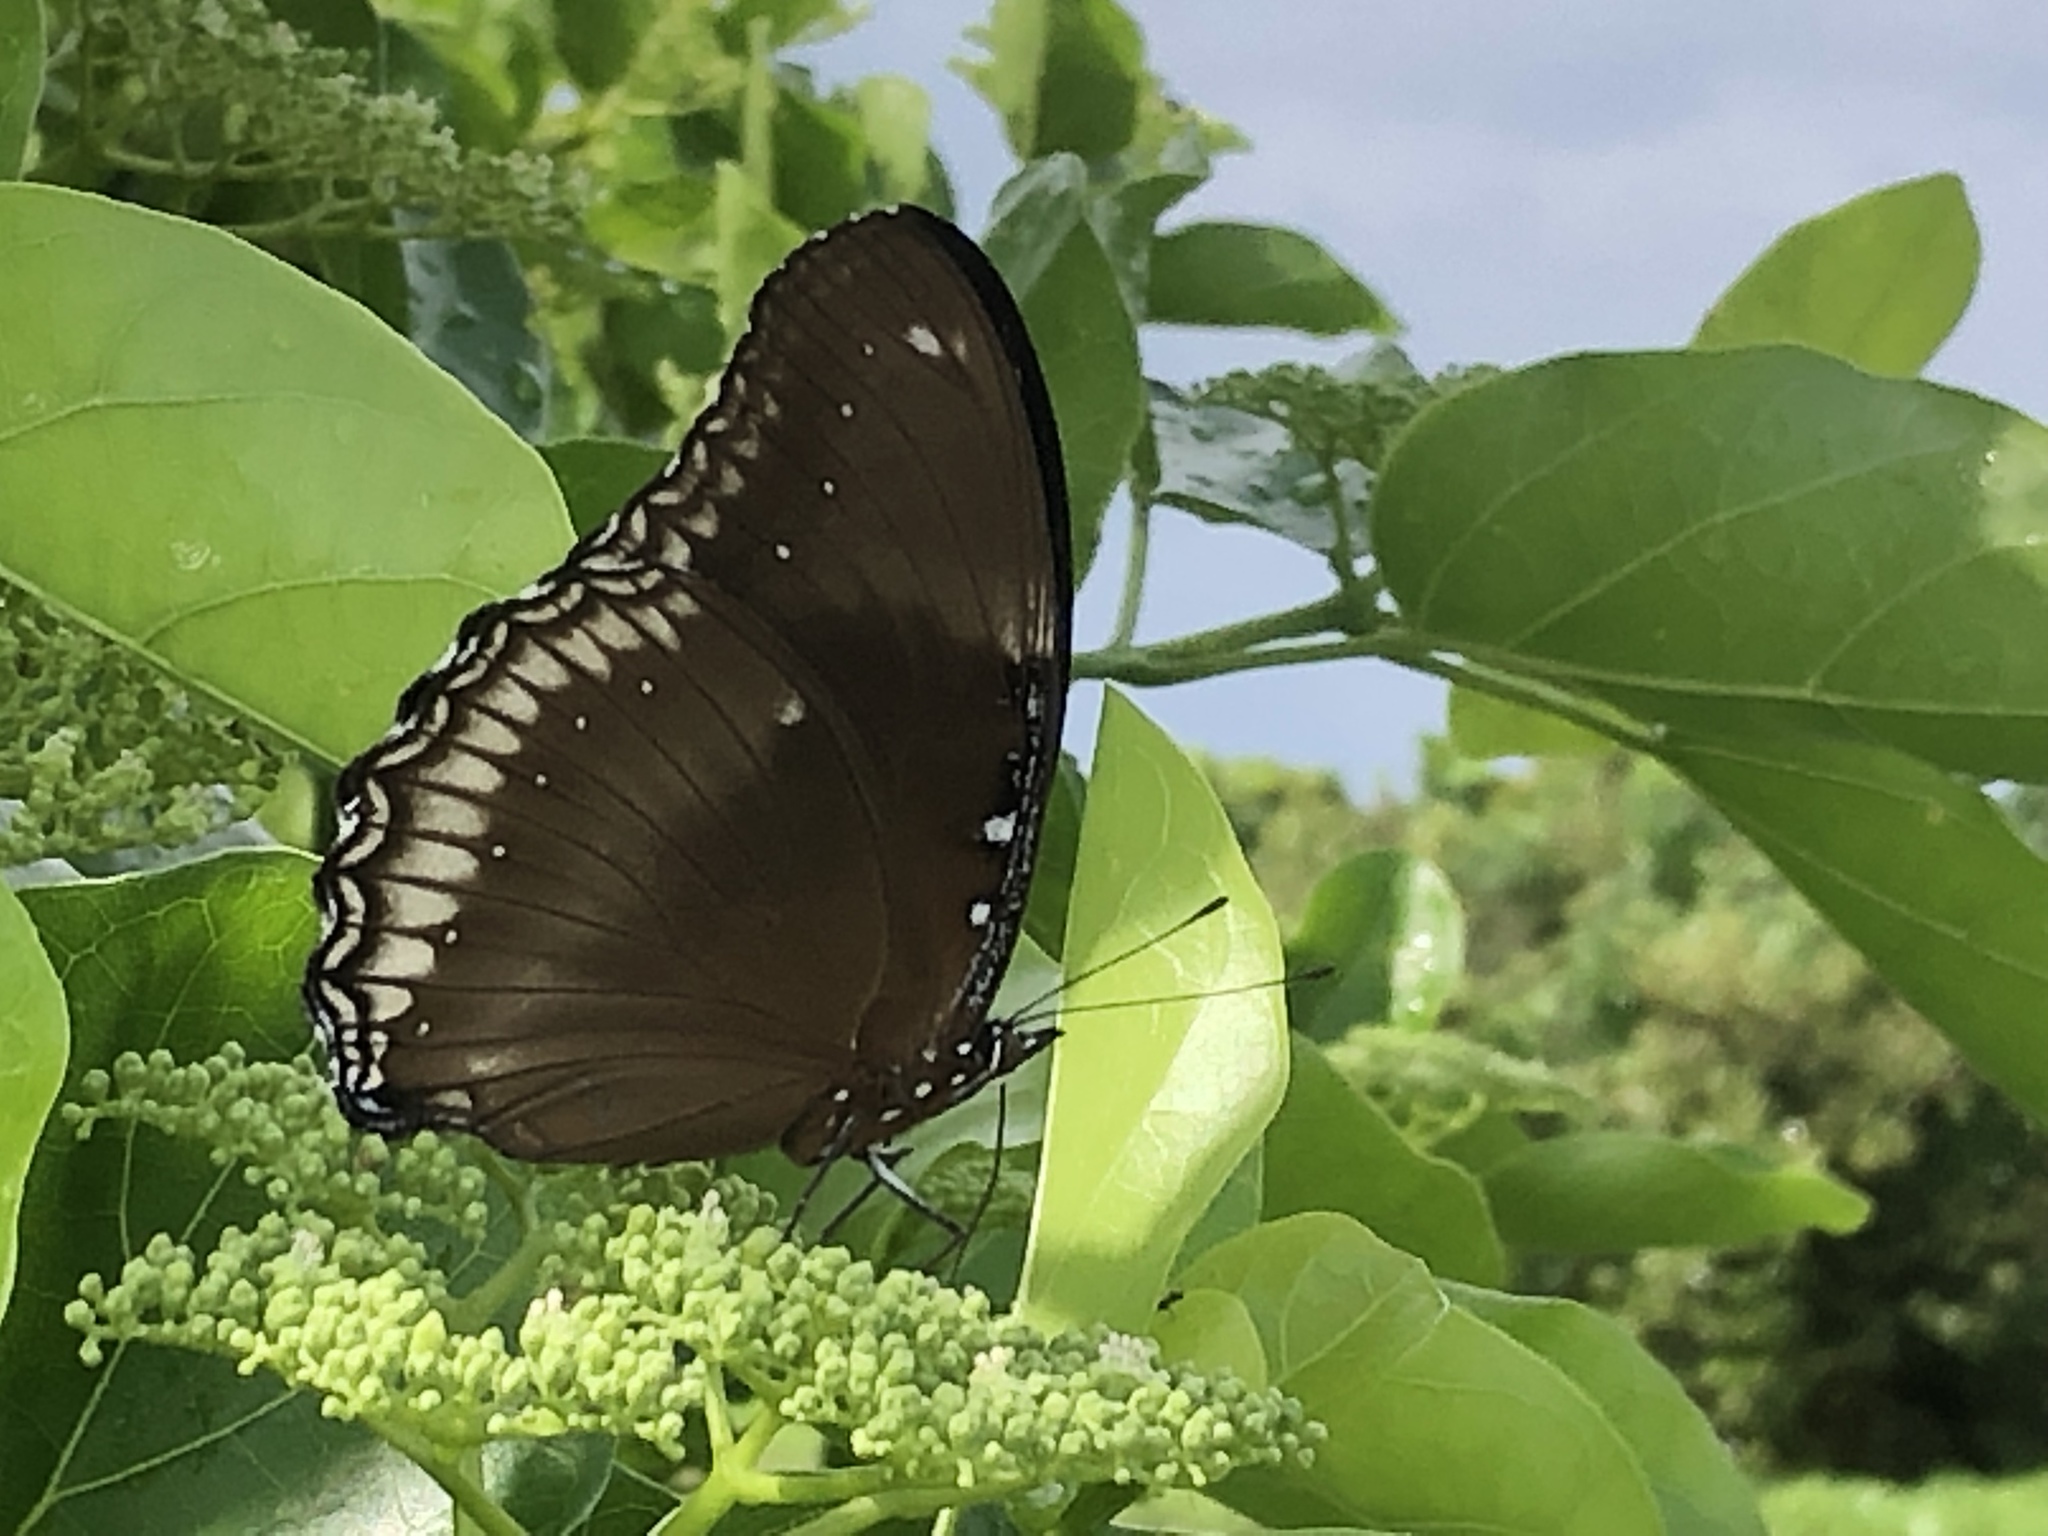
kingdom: Animalia
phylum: Arthropoda
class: Insecta
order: Lepidoptera
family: Nymphalidae
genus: Hypolimnas
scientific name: Hypolimnas bolina
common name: Great eggfly
